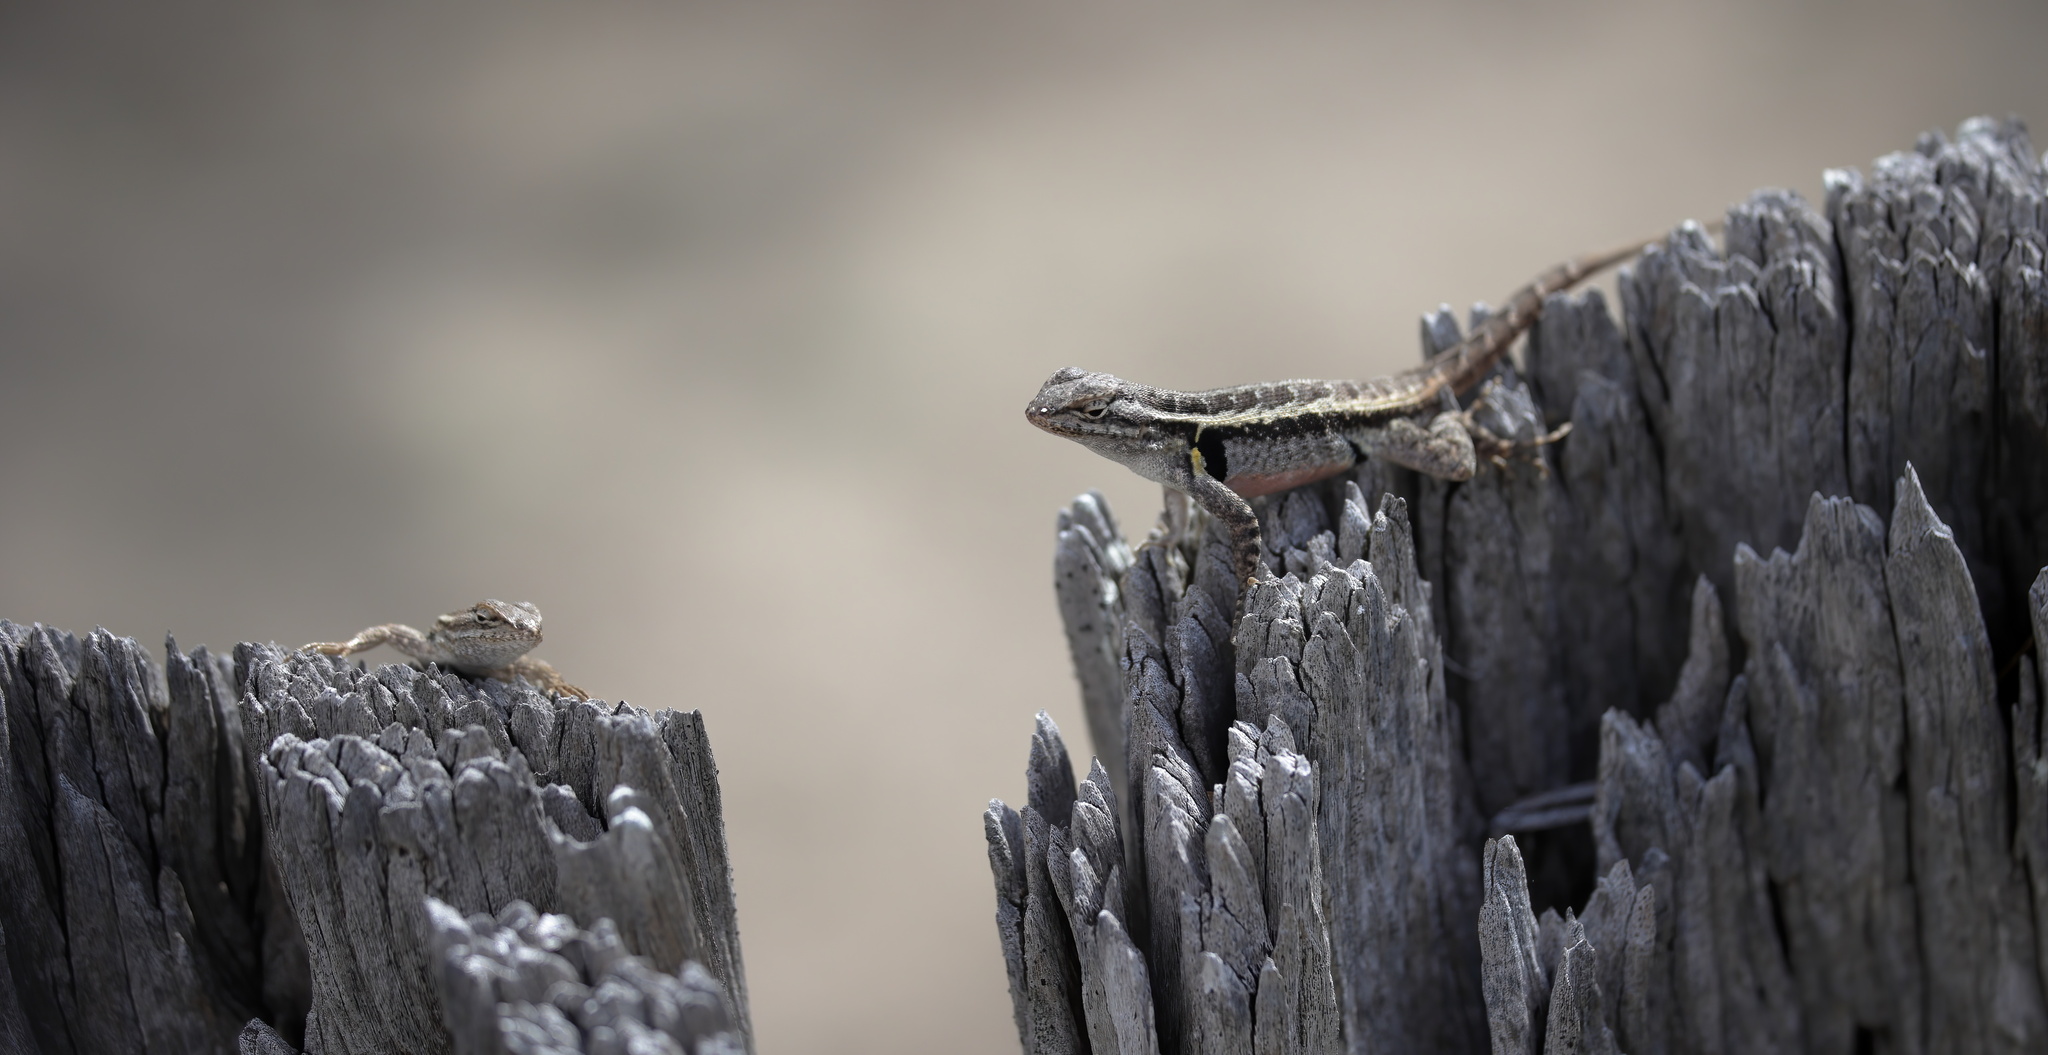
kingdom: Animalia
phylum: Chordata
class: Squamata
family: Phrynosomatidae
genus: Sceloporus
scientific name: Sceloporus variabilis
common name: Rosebelly lizard
